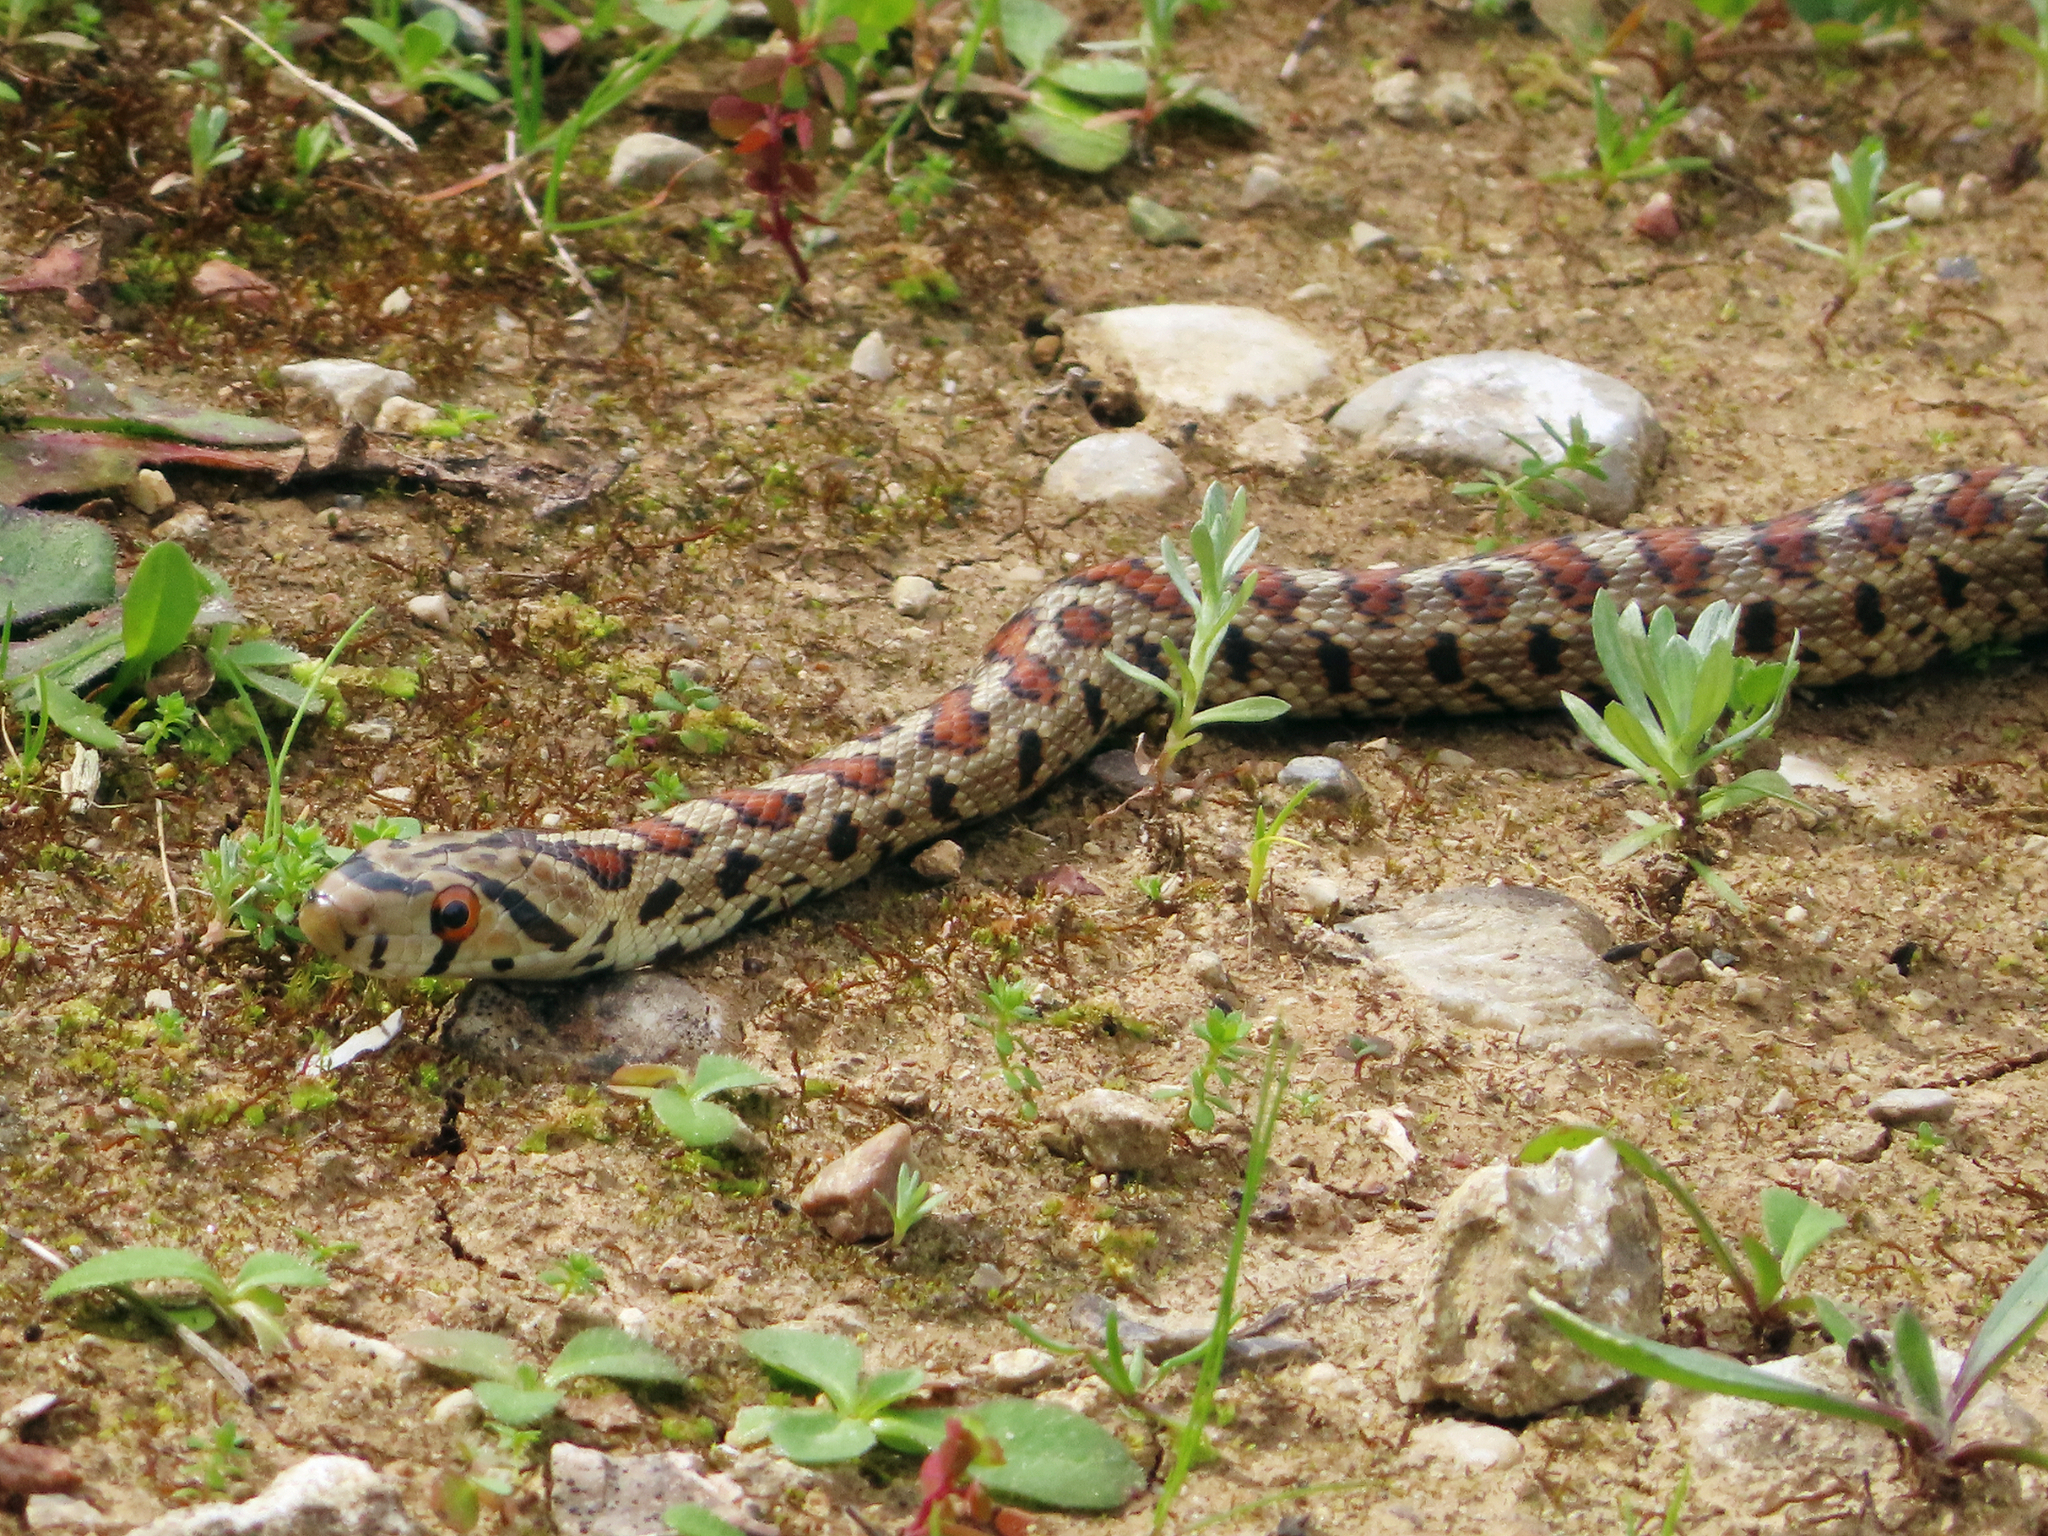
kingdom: Animalia
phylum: Chordata
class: Squamata
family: Colubridae
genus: Zamenis
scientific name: Zamenis situla
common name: European ratsnake
